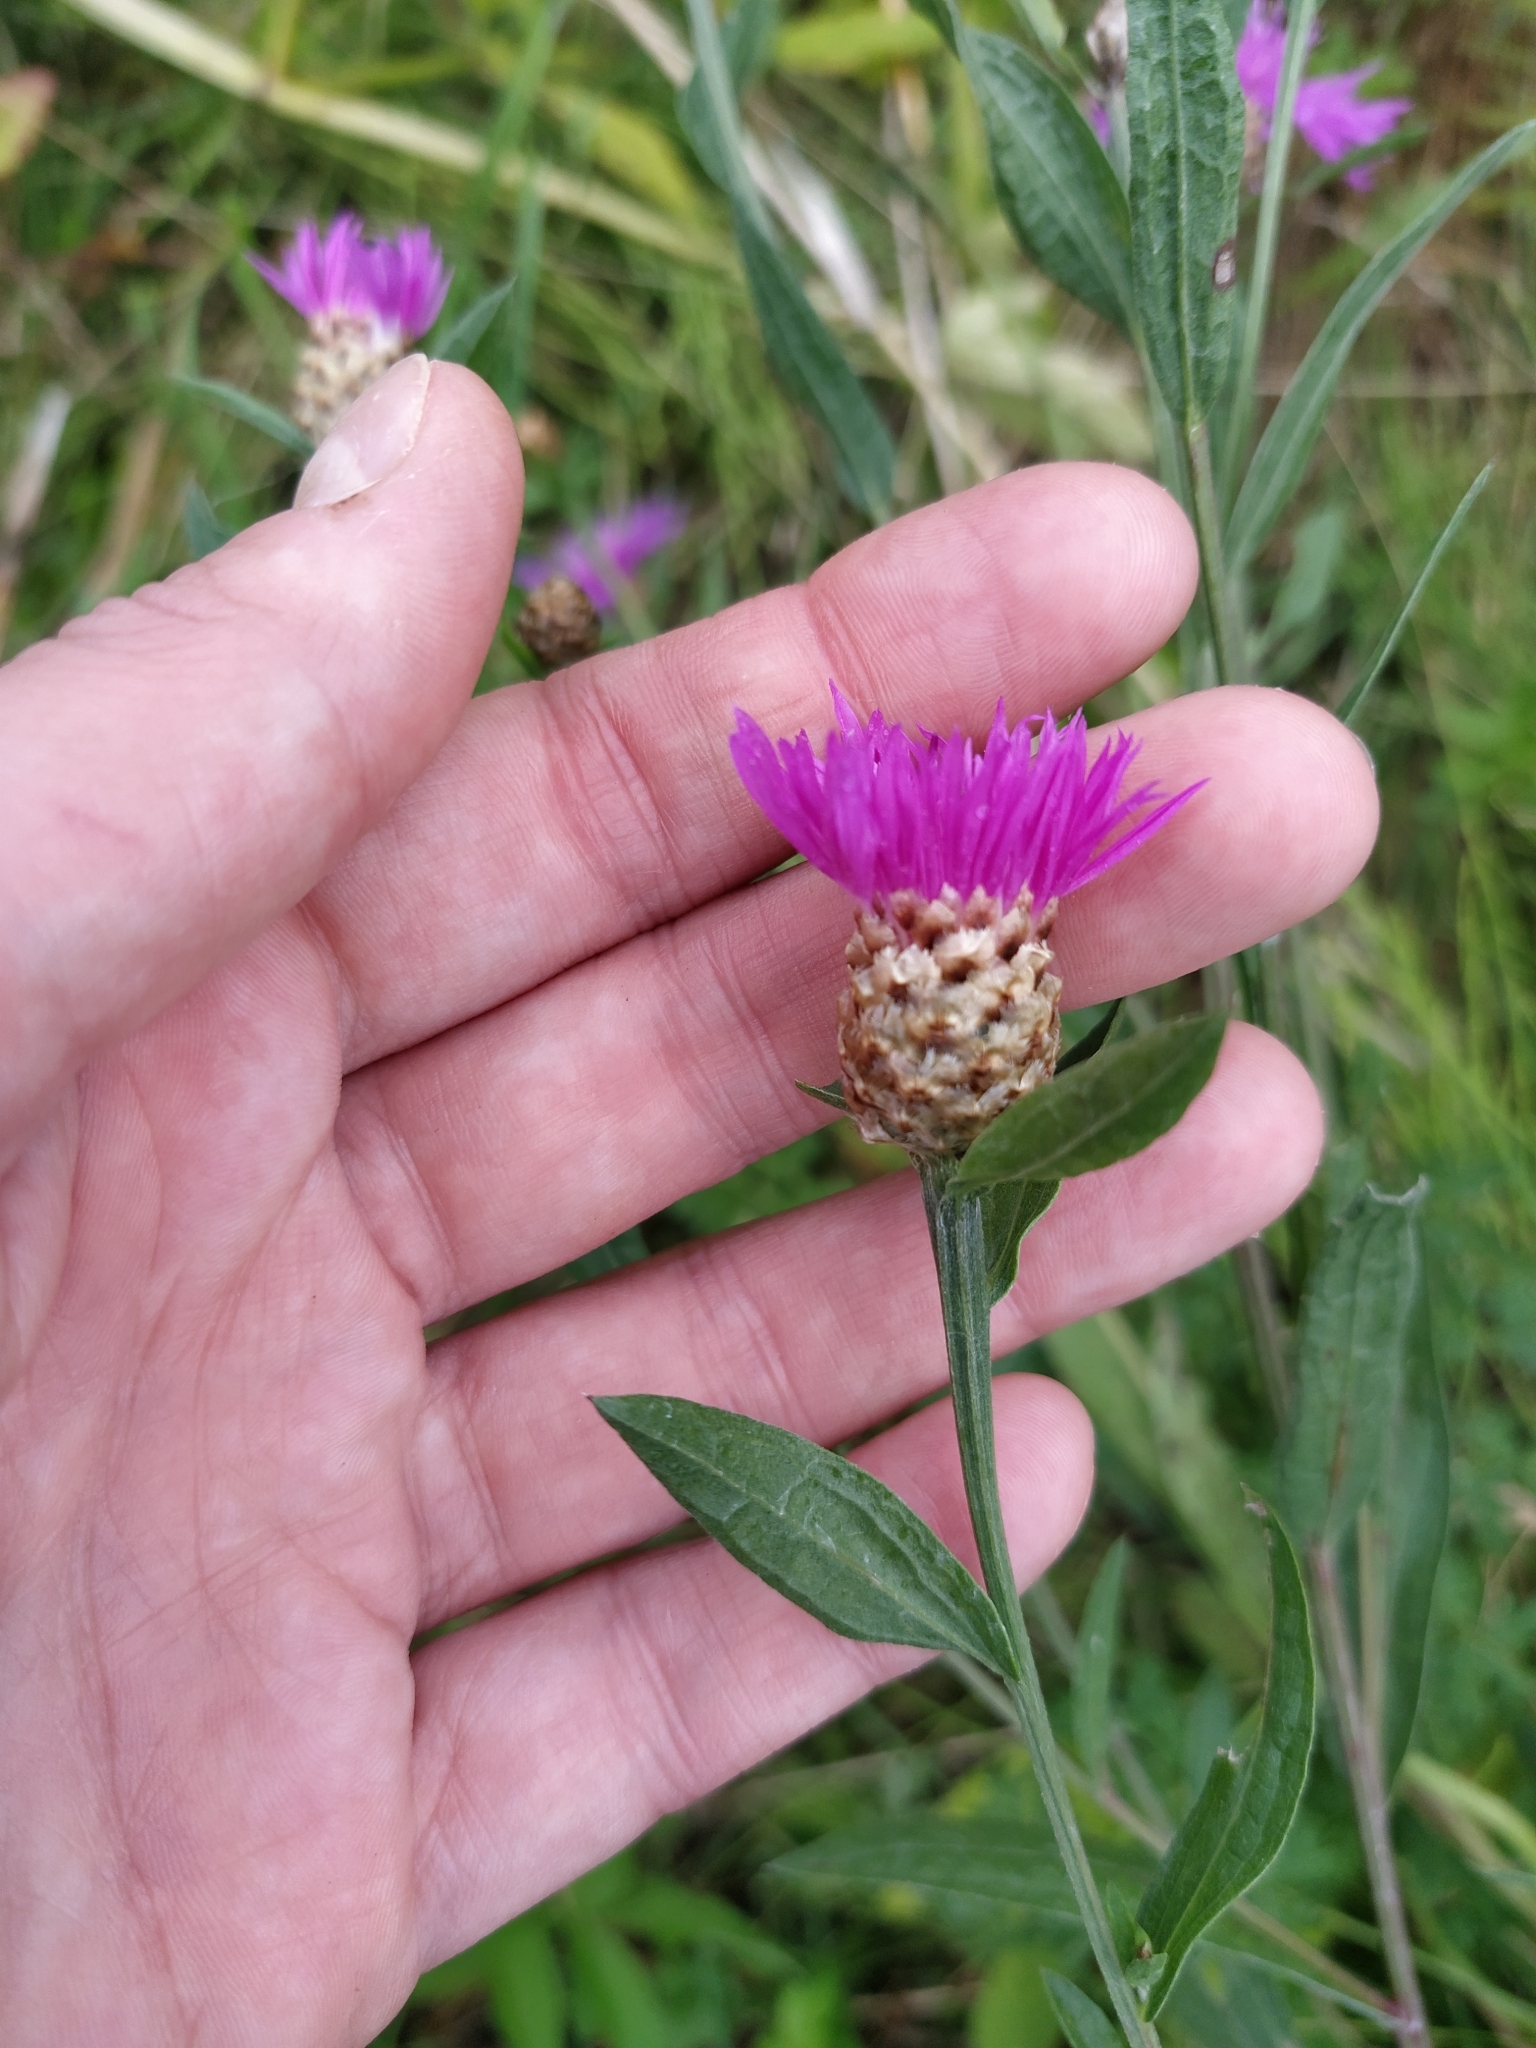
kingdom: Plantae
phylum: Tracheophyta
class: Magnoliopsida
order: Asterales
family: Asteraceae
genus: Centaurea
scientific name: Centaurea jacea
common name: Brown knapweed
